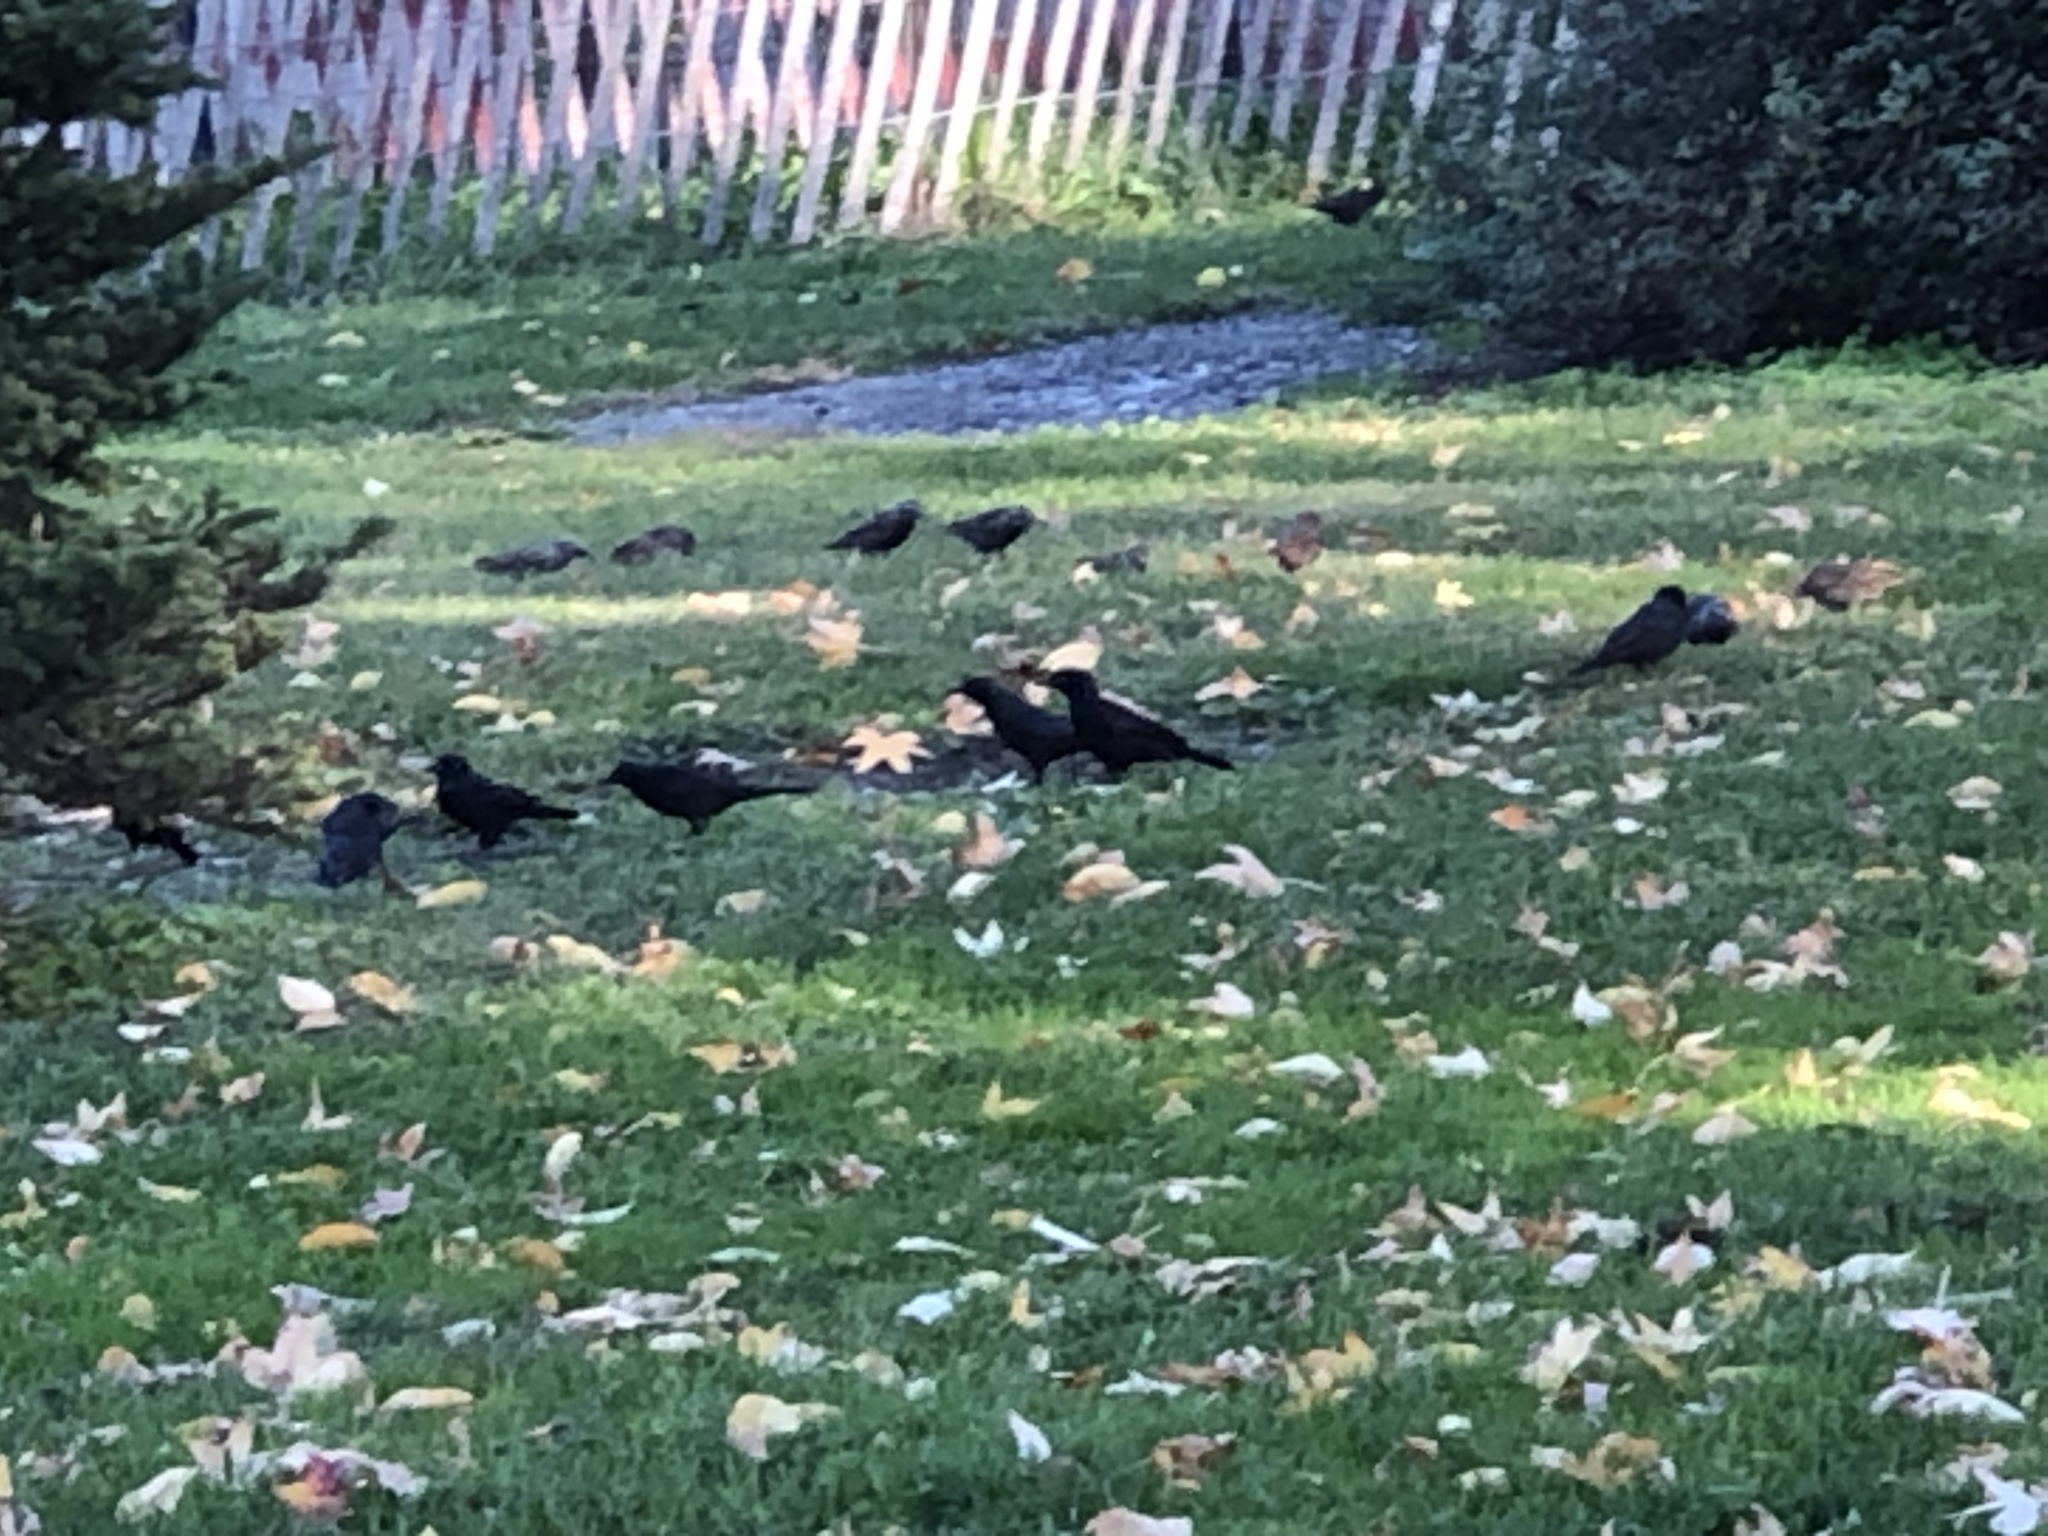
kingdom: Animalia
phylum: Chordata
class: Aves
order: Passeriformes
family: Icteridae
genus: Quiscalus
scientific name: Quiscalus quiscula
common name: Common grackle
